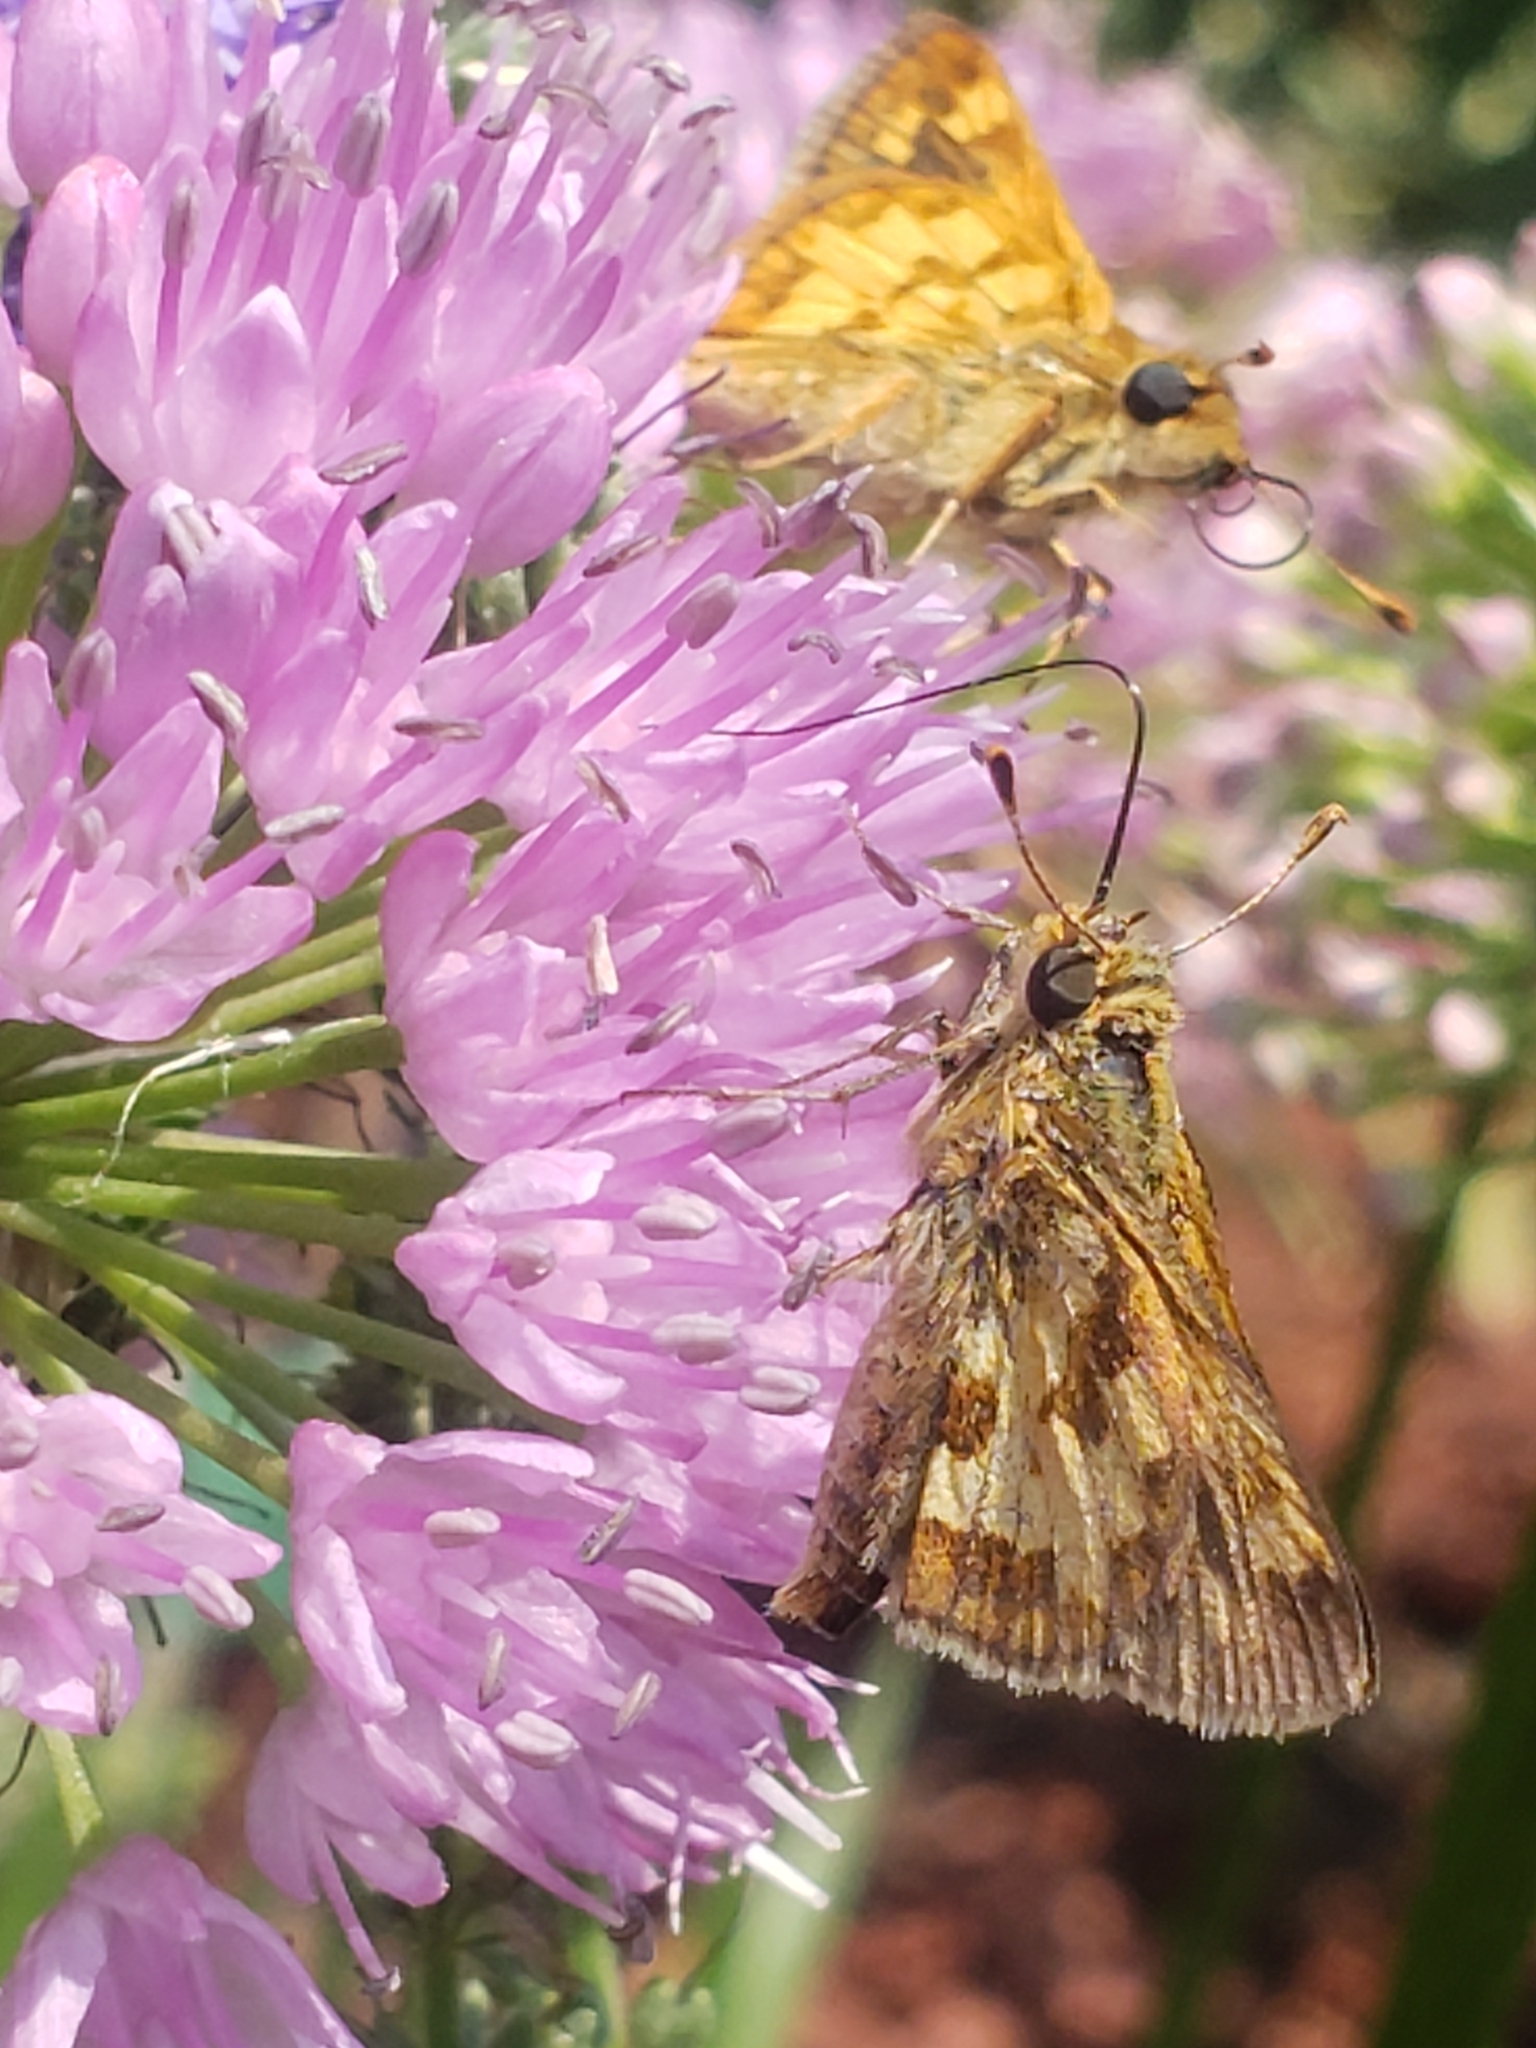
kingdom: Animalia
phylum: Arthropoda
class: Insecta
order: Lepidoptera
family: Hesperiidae
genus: Polites
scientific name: Polites coras
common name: Peck's skipper
